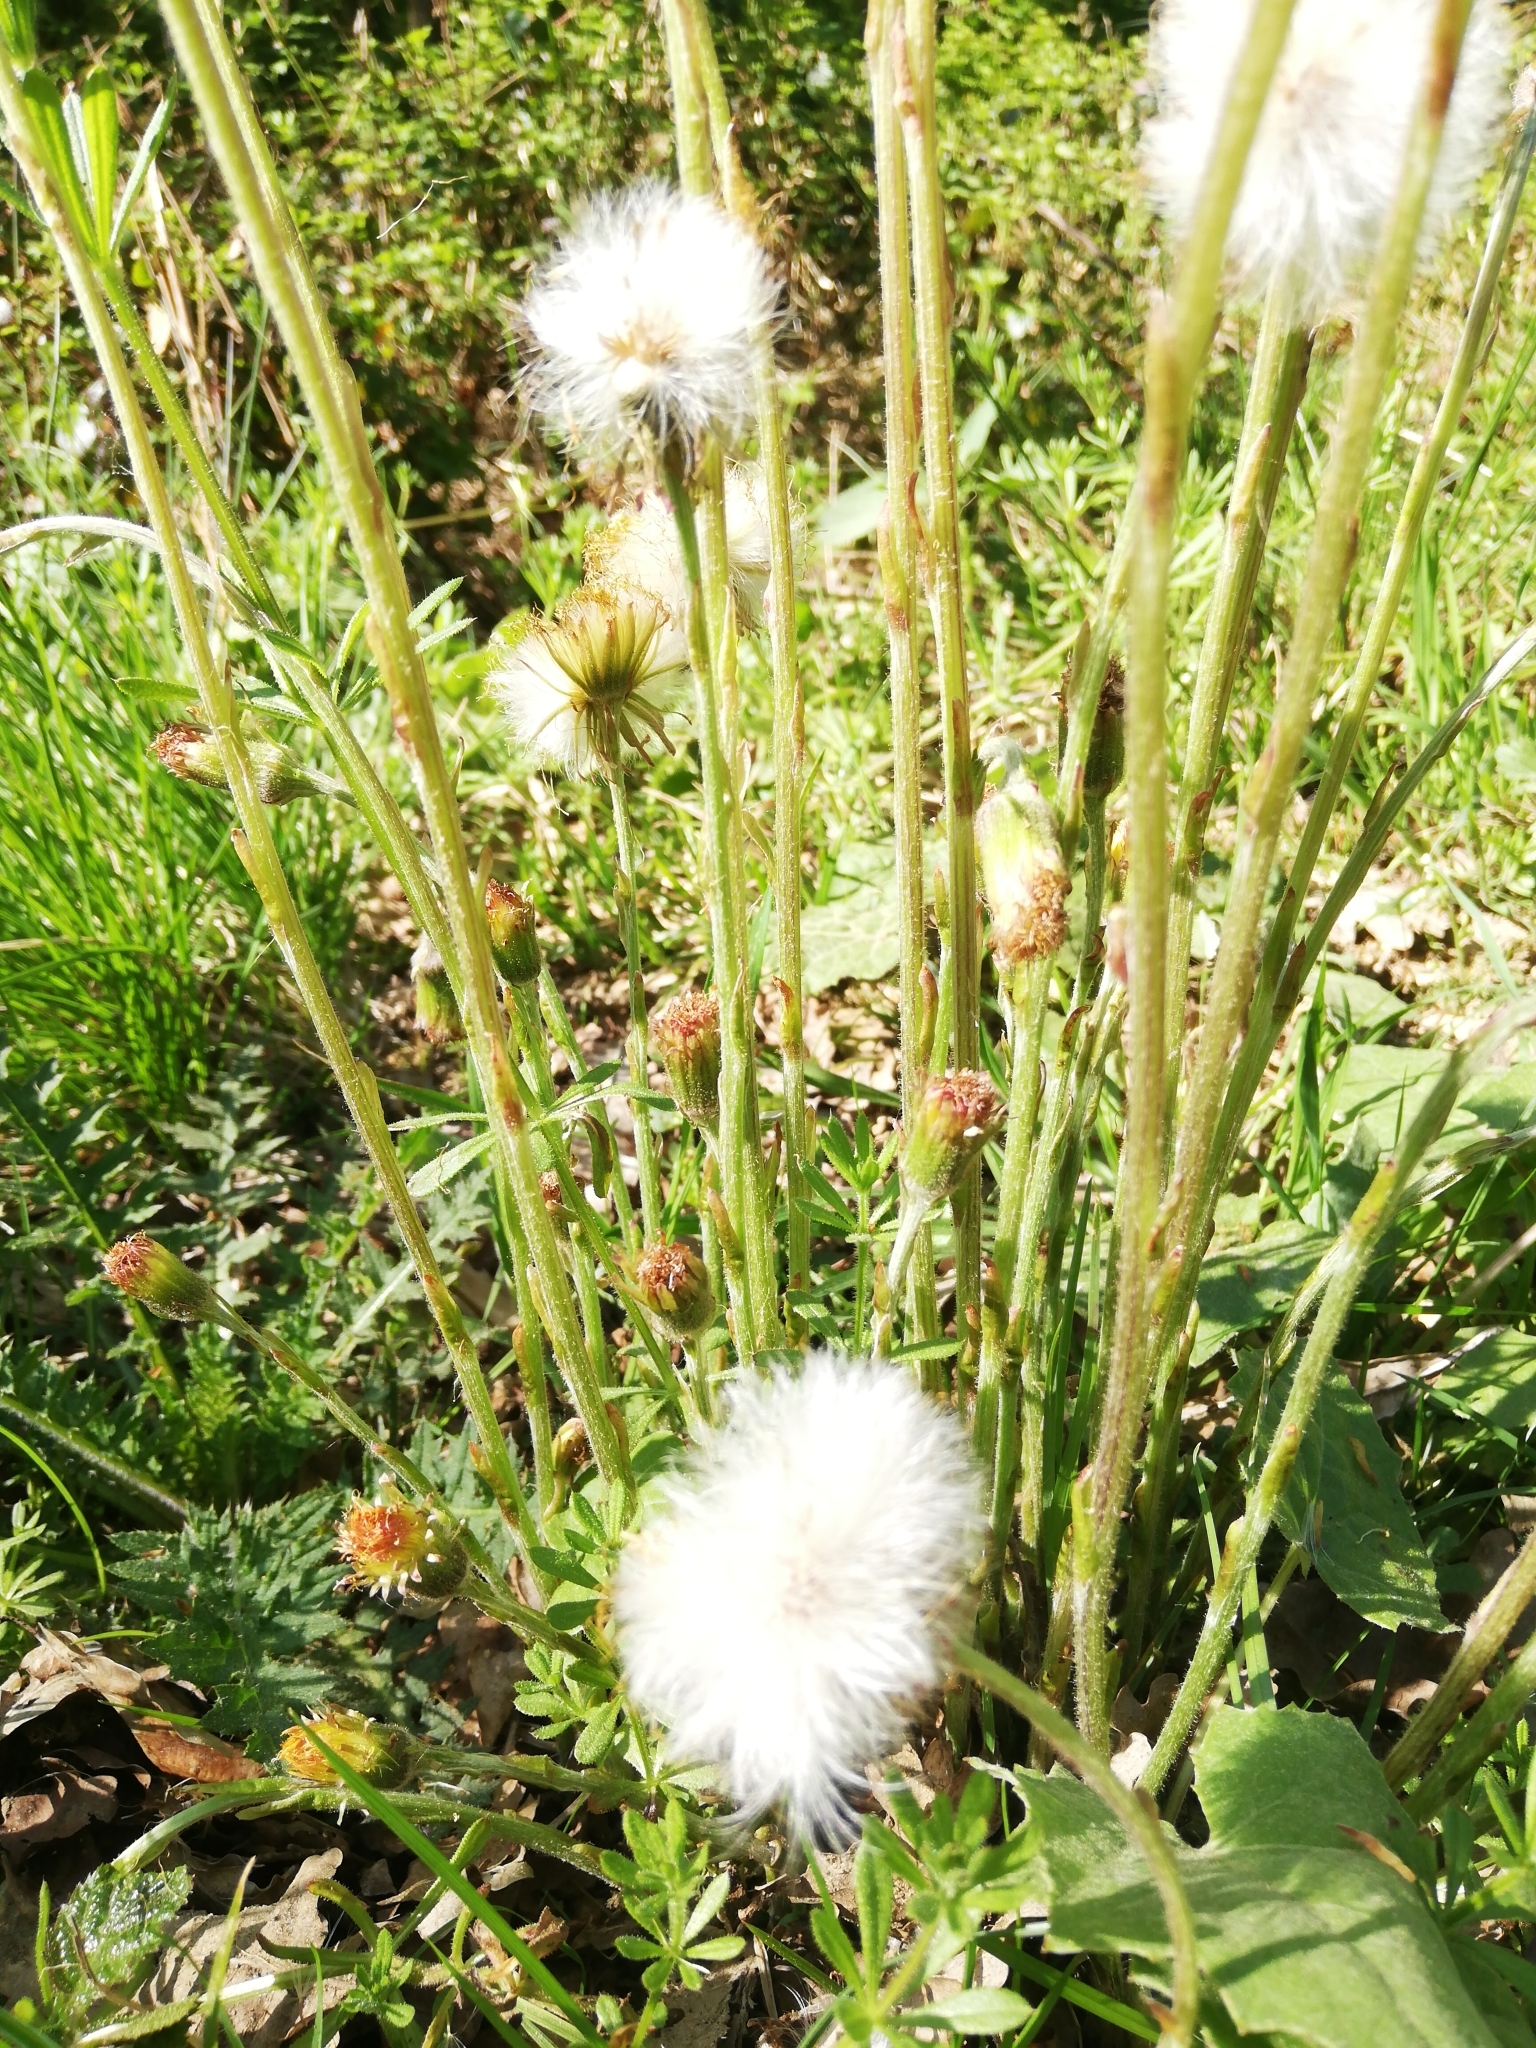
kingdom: Plantae
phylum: Tracheophyta
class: Magnoliopsida
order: Asterales
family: Asteraceae
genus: Tussilago
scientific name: Tussilago farfara
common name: Coltsfoot
